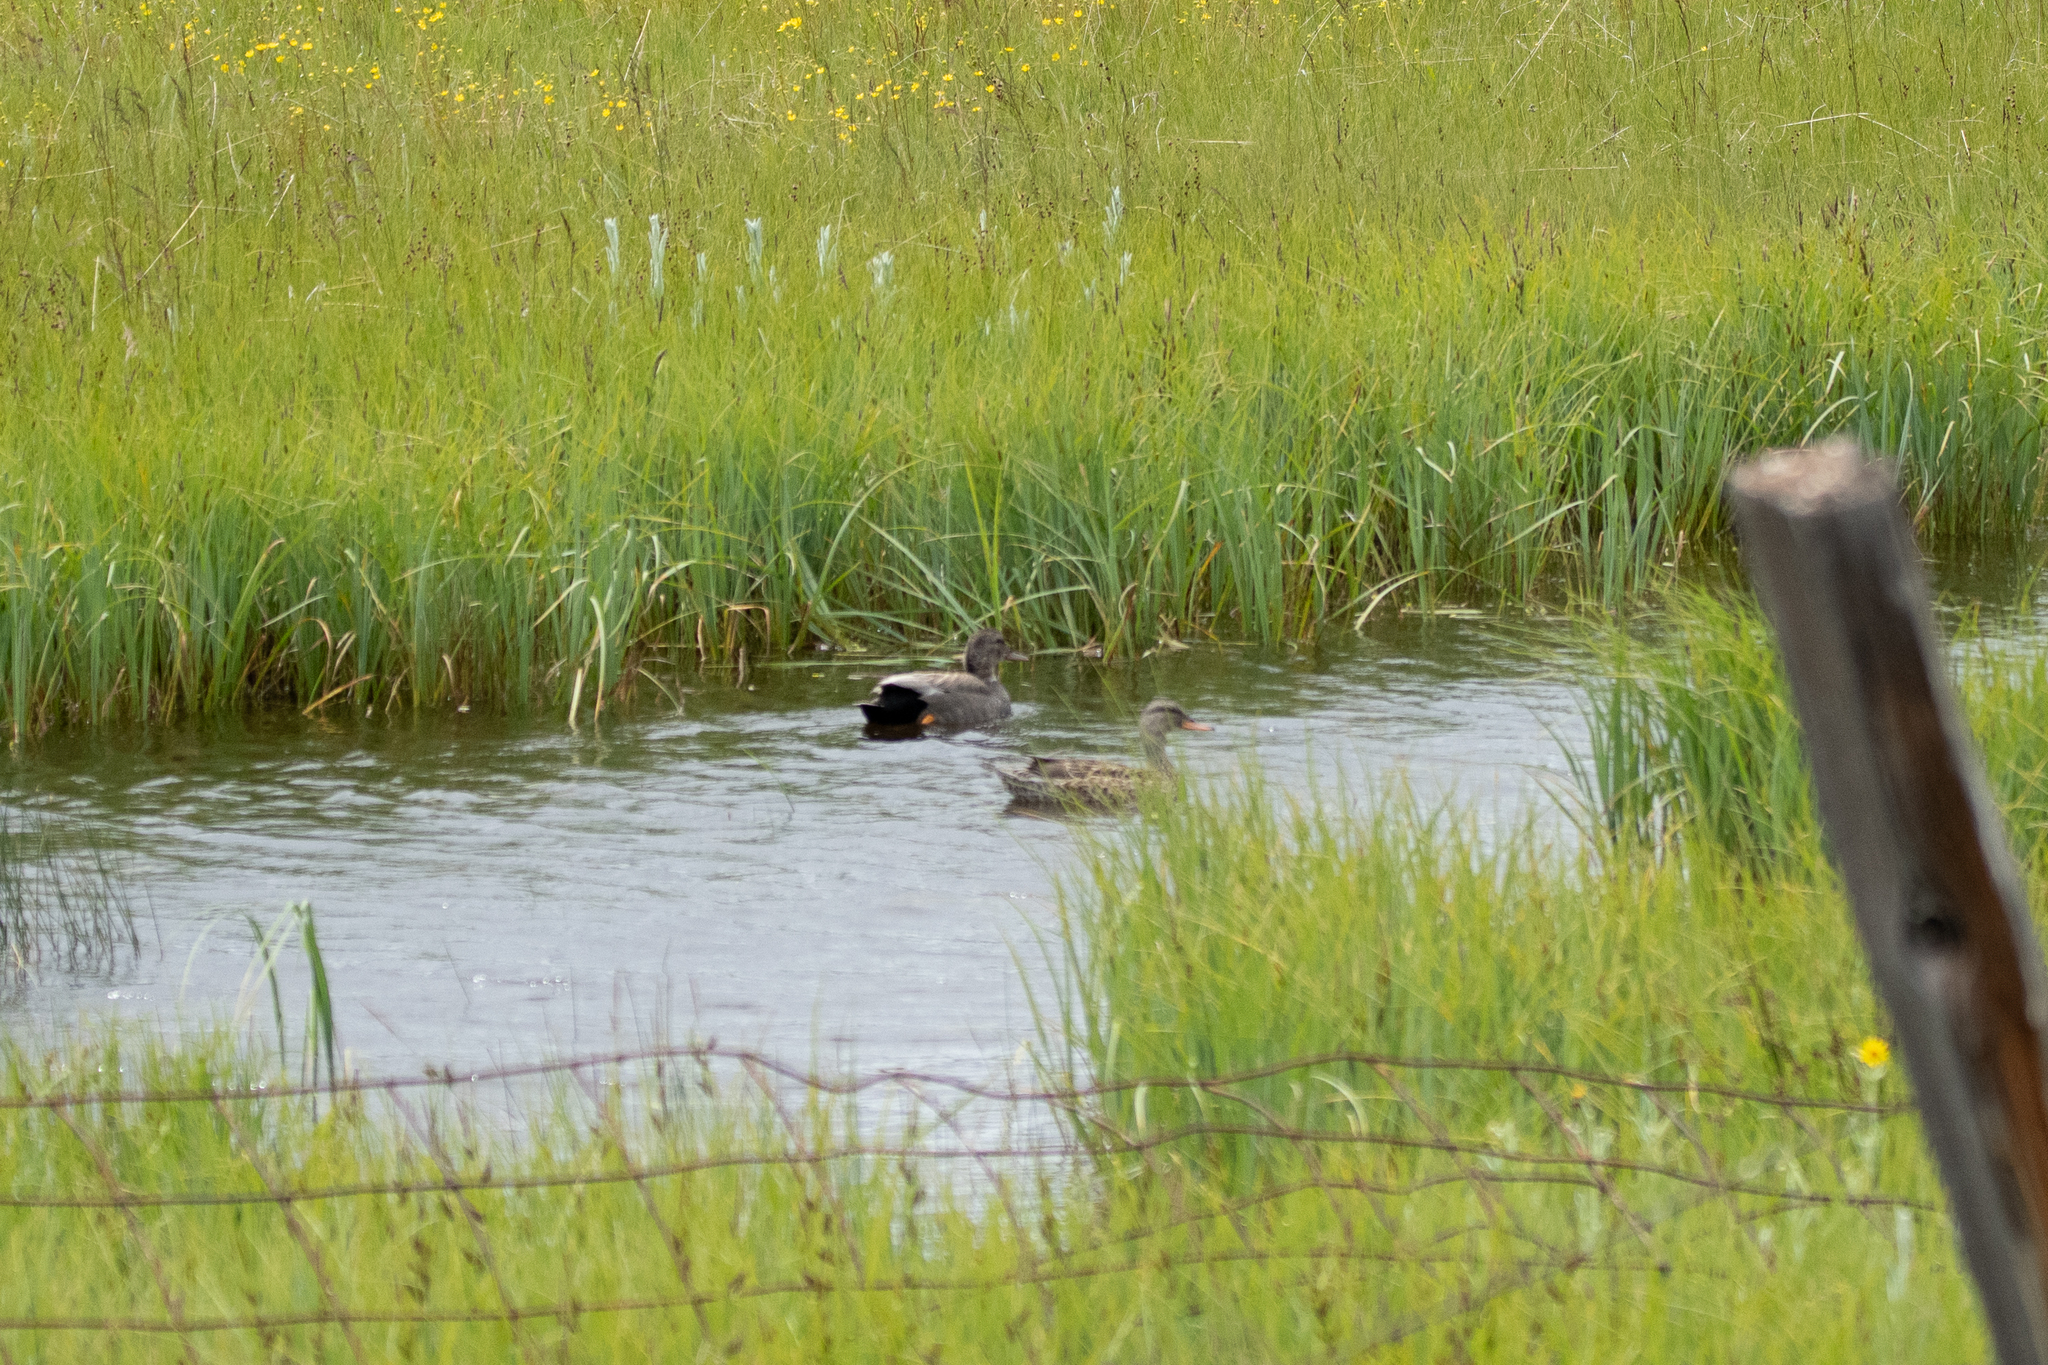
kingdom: Animalia
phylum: Chordata
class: Aves
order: Anseriformes
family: Anatidae
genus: Mareca
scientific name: Mareca strepera
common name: Gadwall
